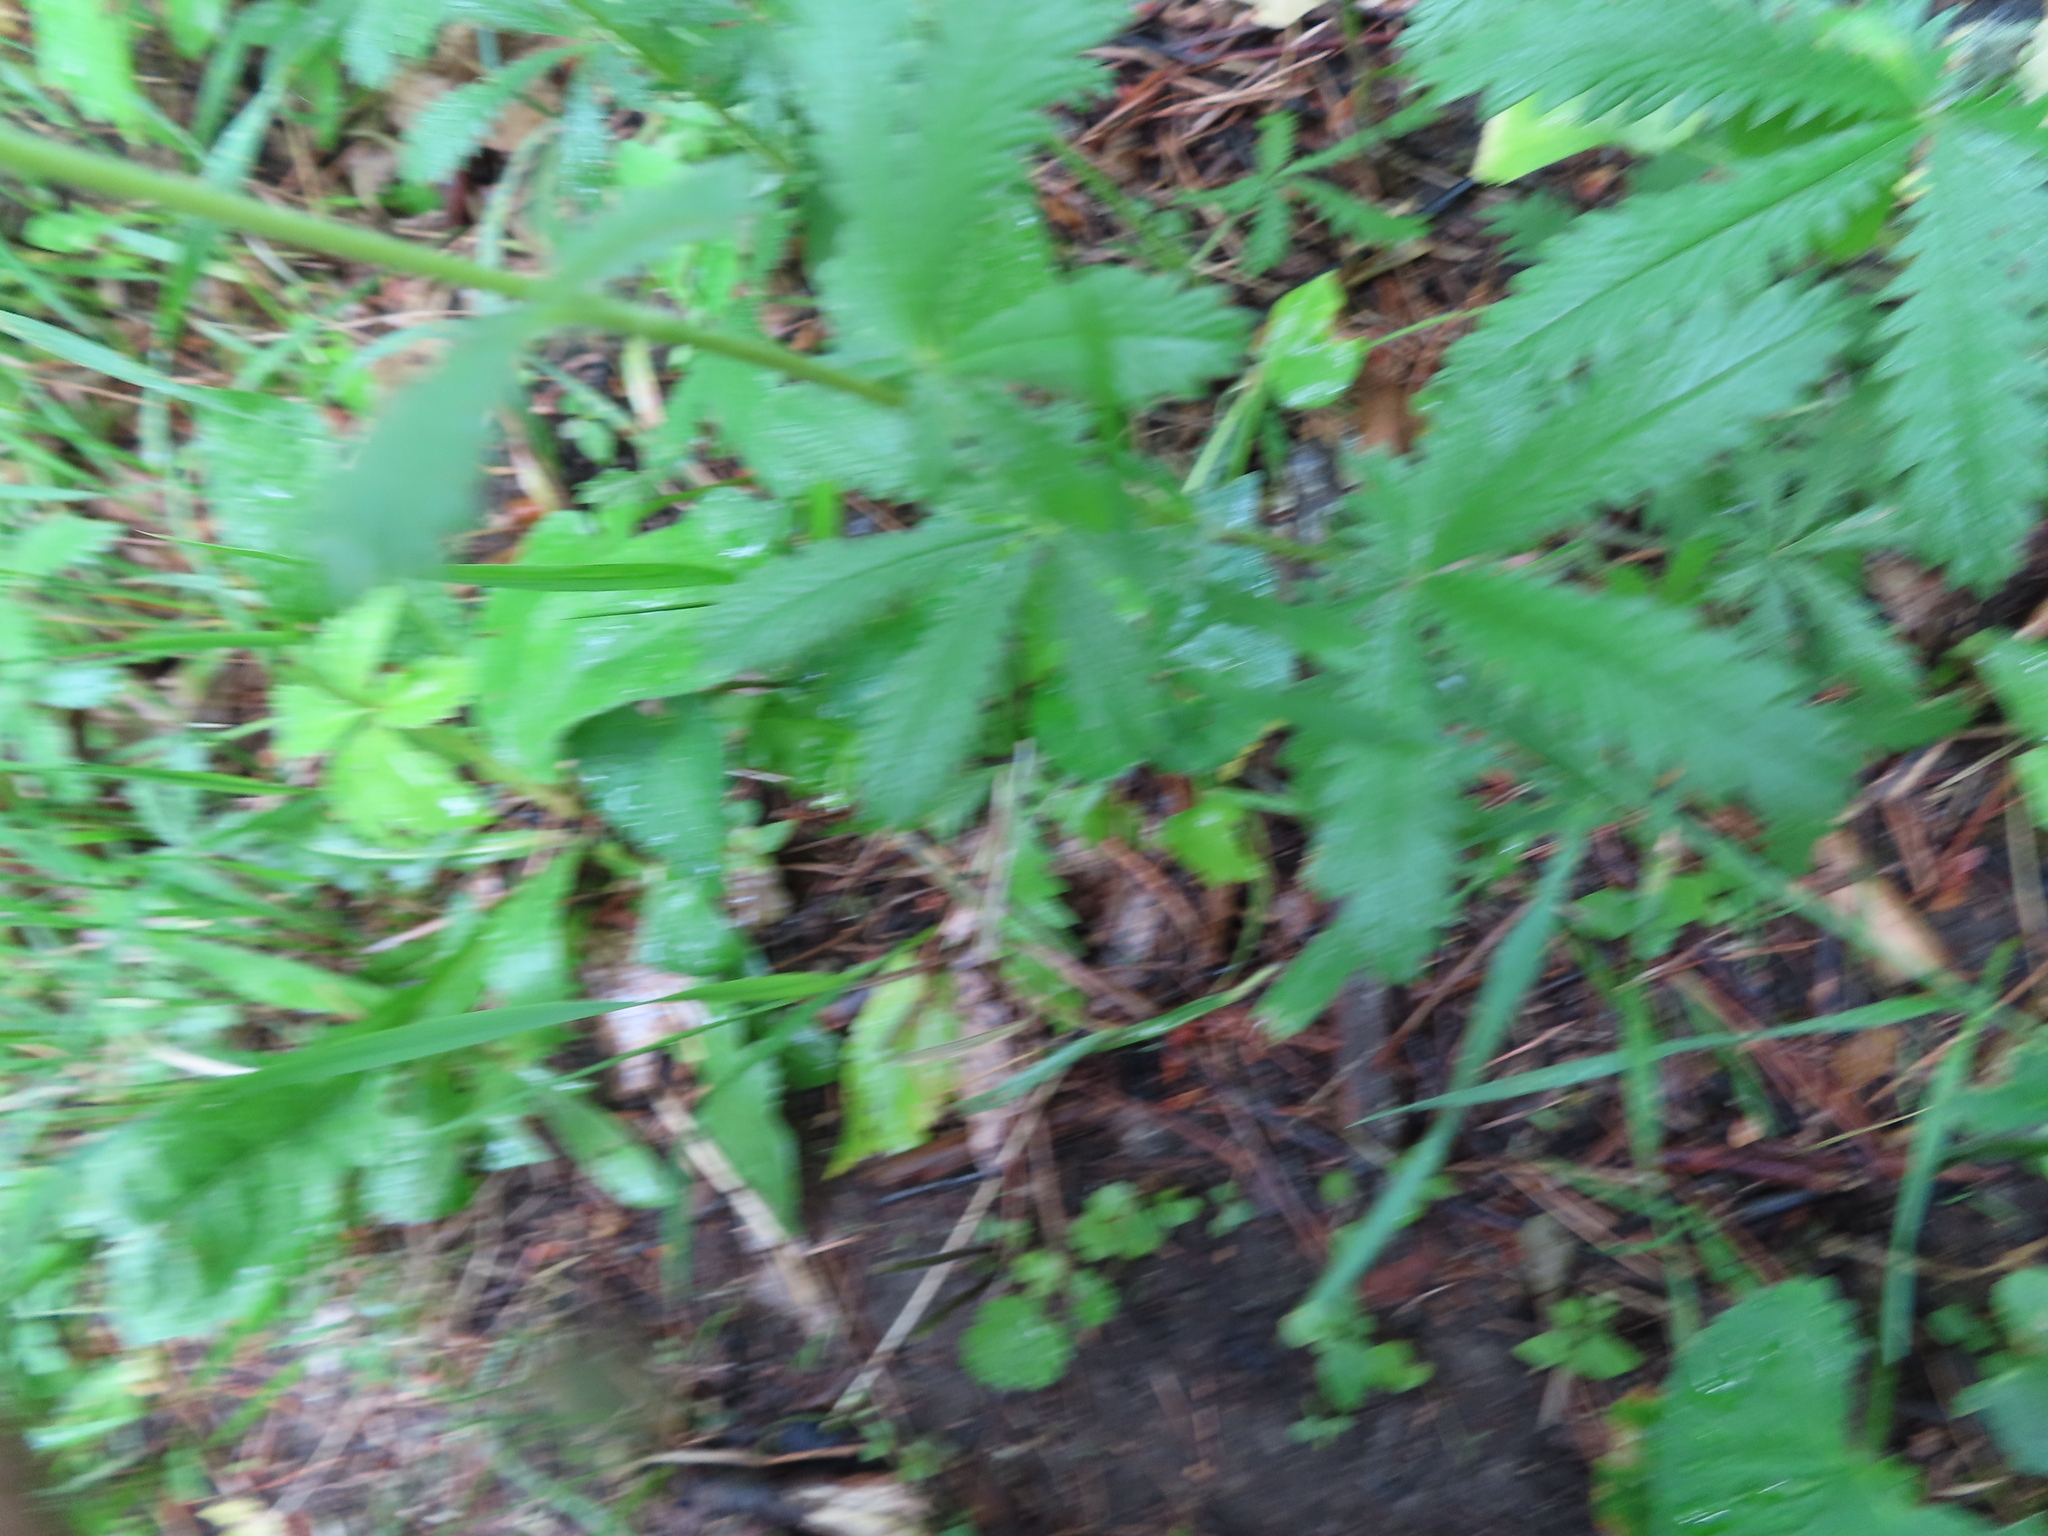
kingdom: Plantae
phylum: Tracheophyta
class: Magnoliopsida
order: Rosales
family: Rosaceae
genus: Potentilla
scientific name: Potentilla recta
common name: Sulphur cinquefoil
